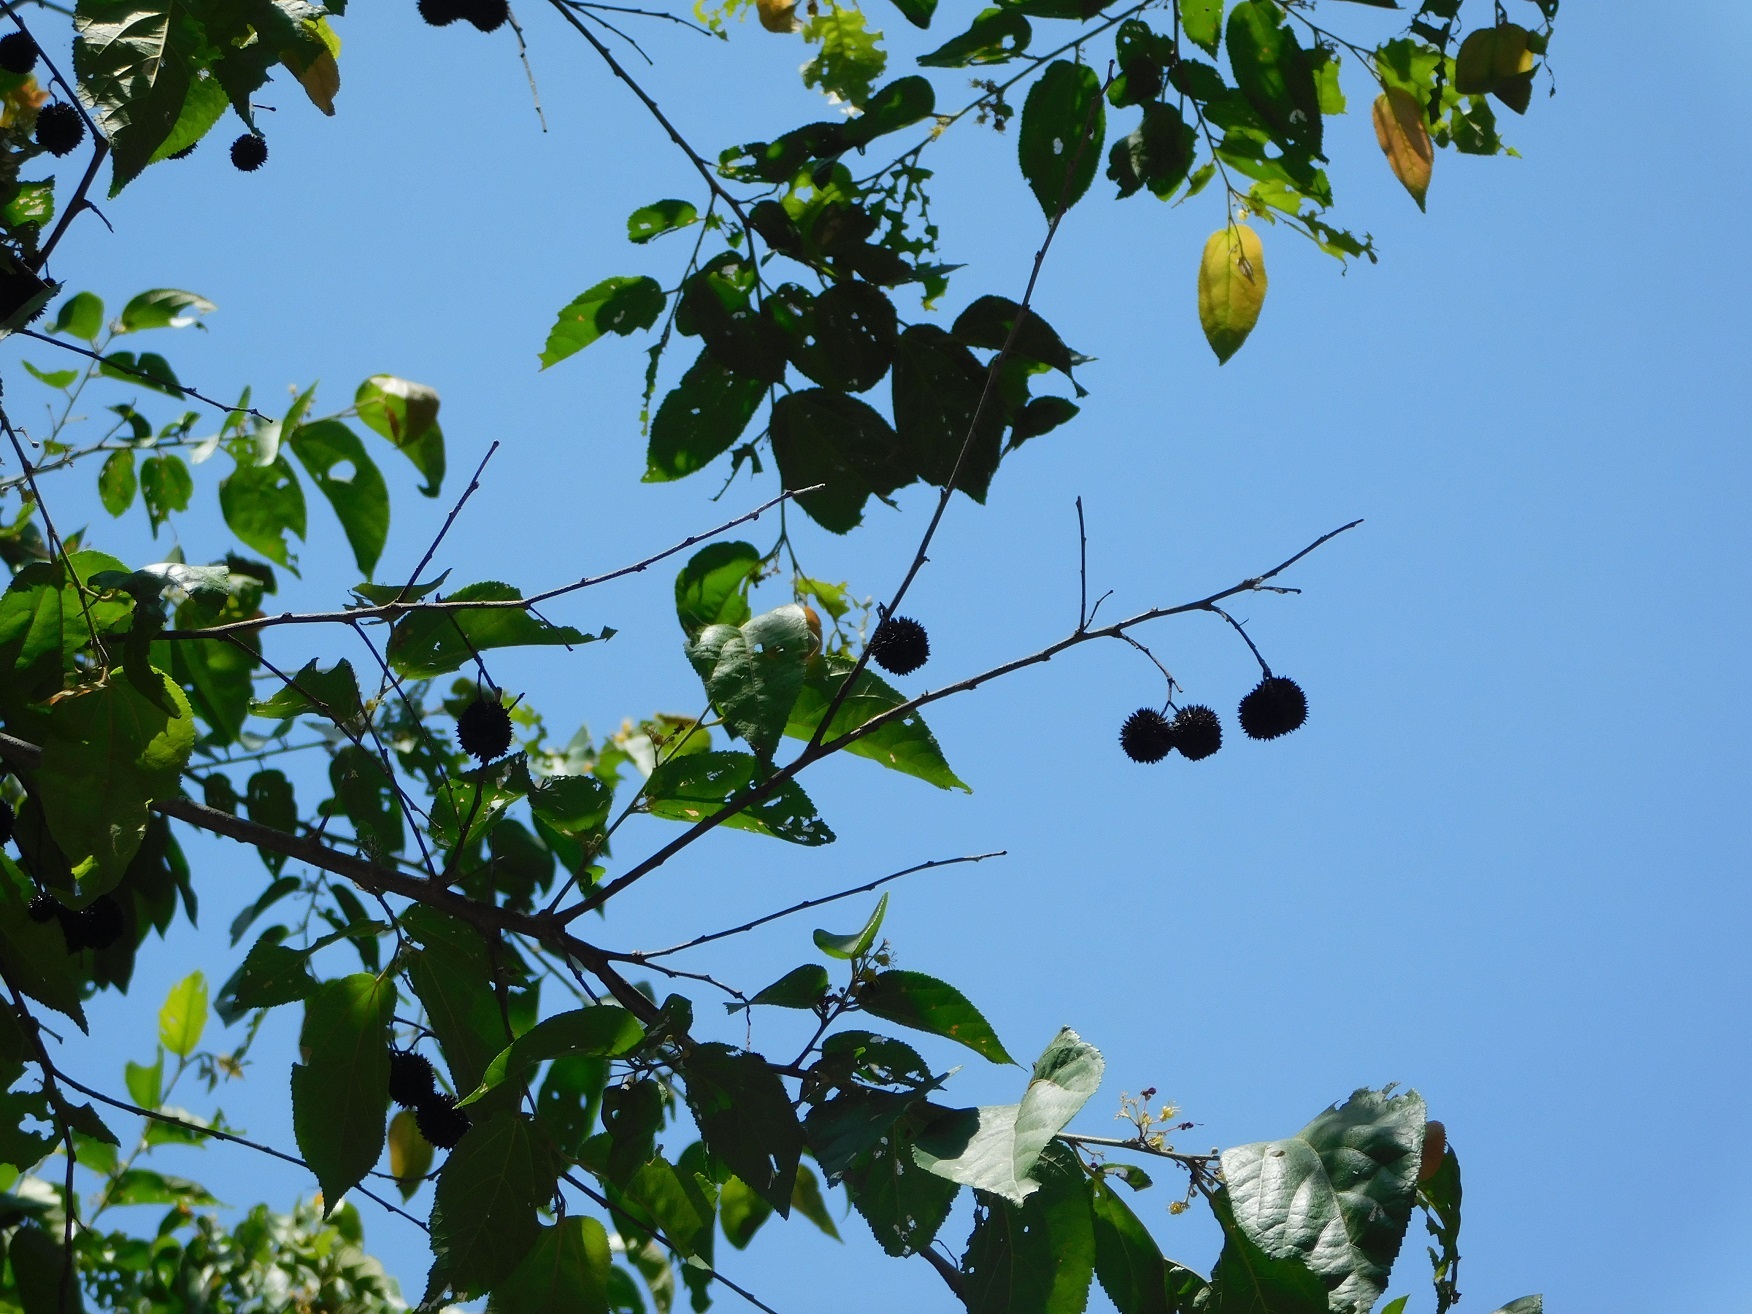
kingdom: Plantae
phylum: Tracheophyta
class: Magnoliopsida
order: Malvales
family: Malvaceae
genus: Guazuma
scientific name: Guazuma ulmifolia
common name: Bastard-cedar
